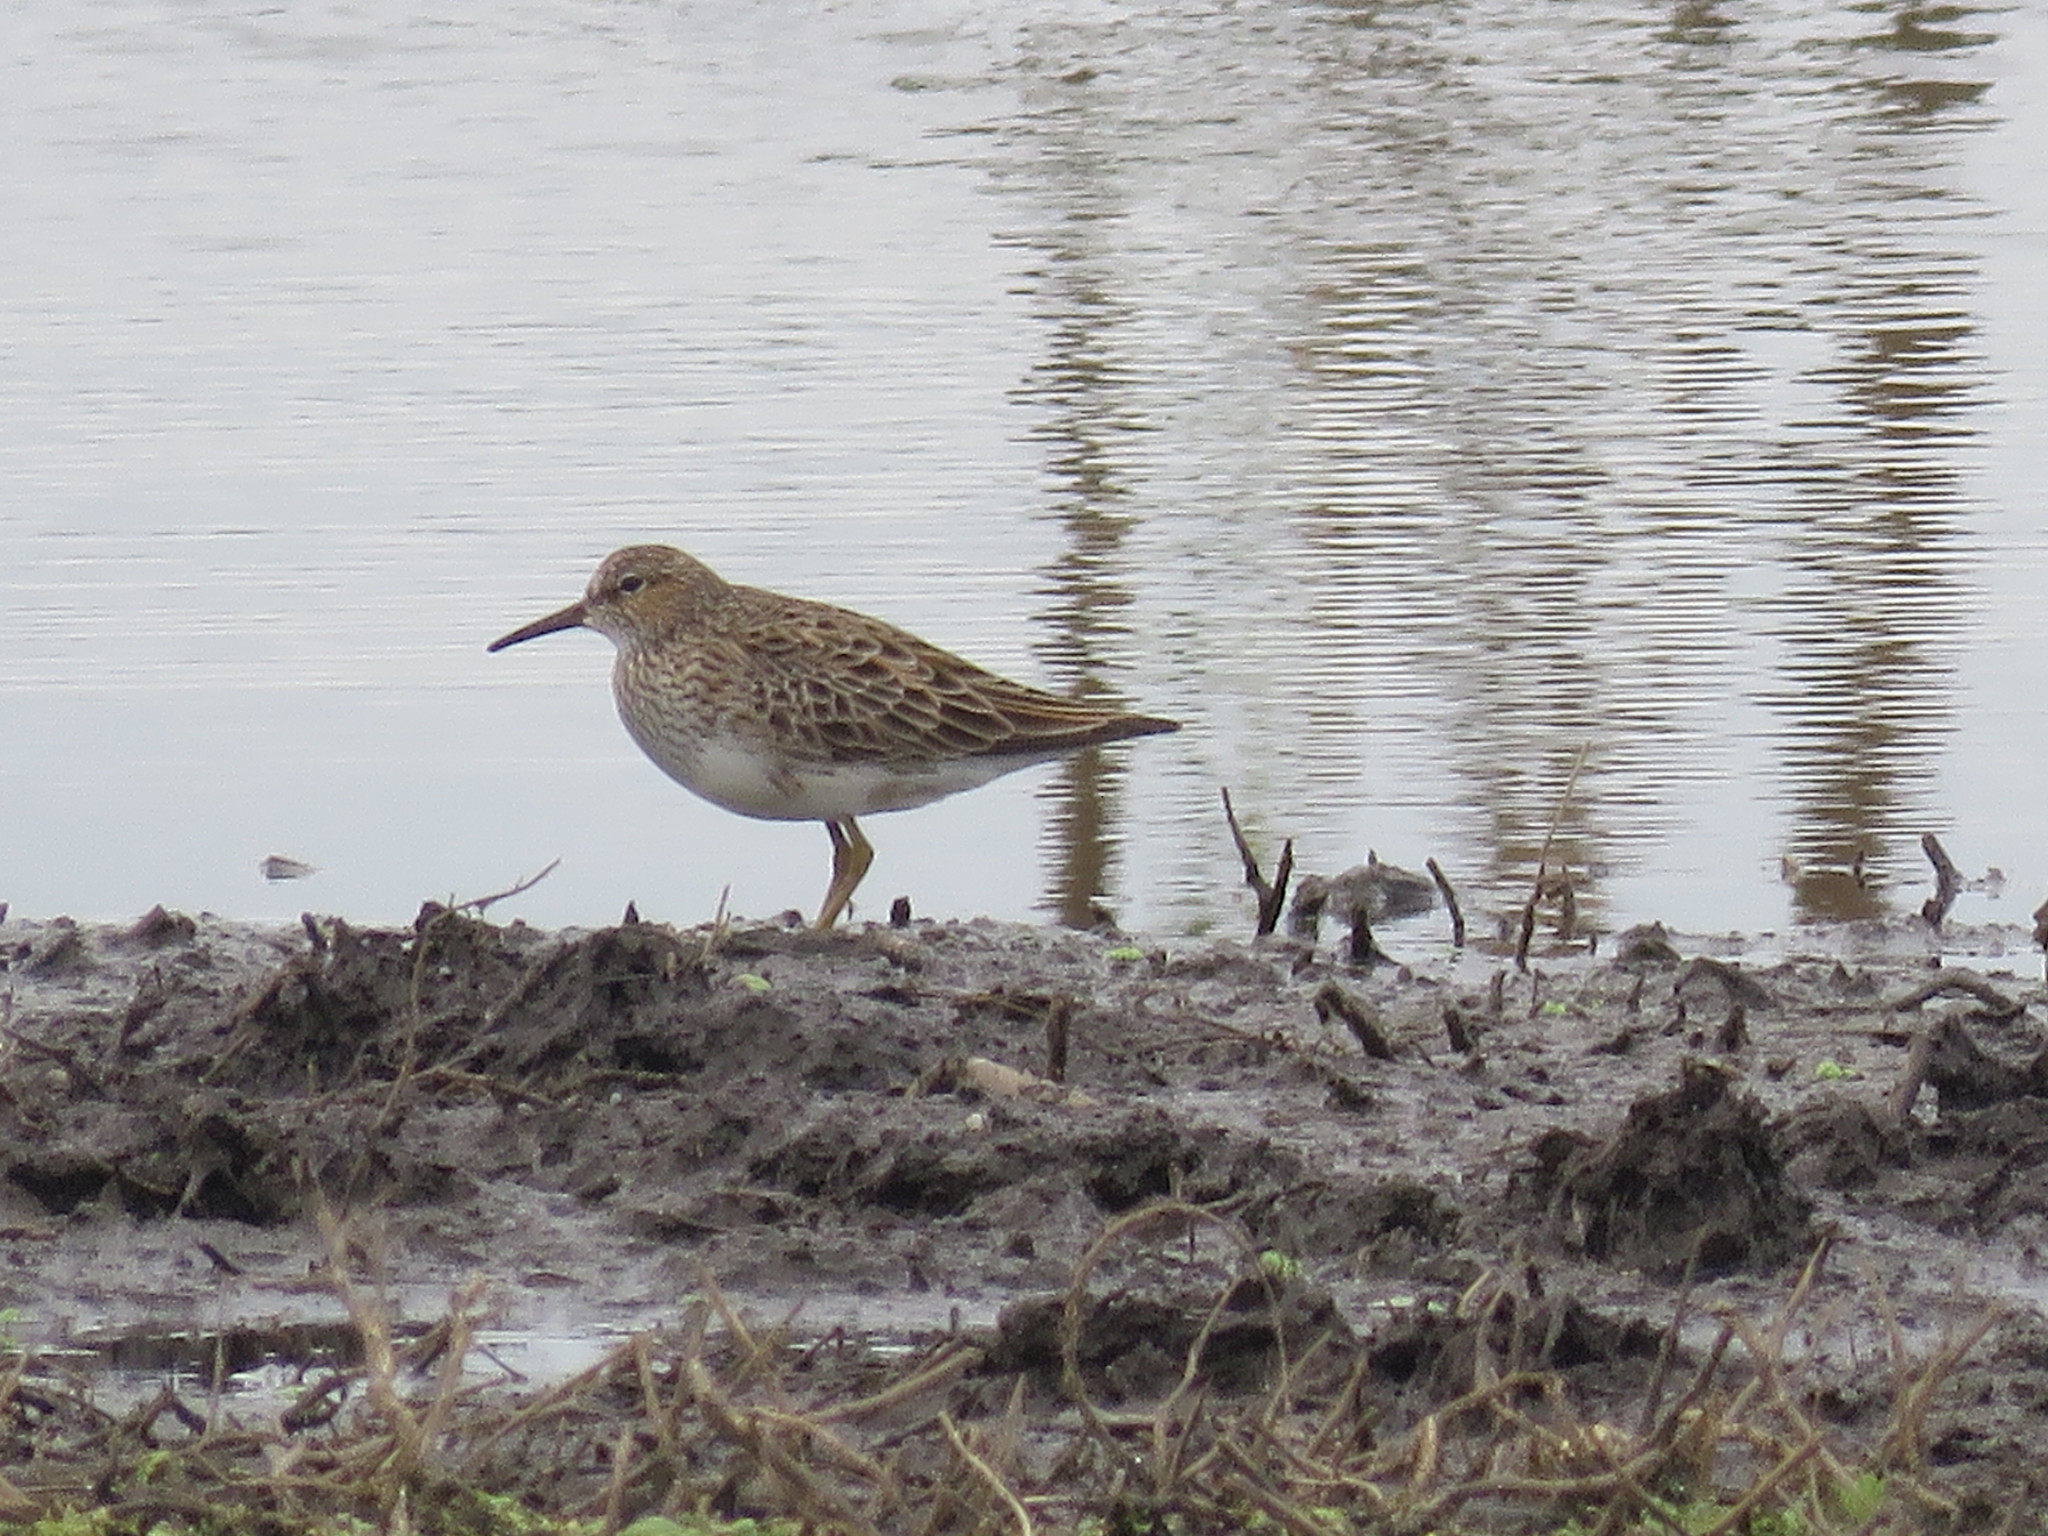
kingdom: Animalia
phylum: Chordata
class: Aves
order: Charadriiformes
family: Scolopacidae
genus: Calidris
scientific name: Calidris melanotos
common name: Pectoral sandpiper
